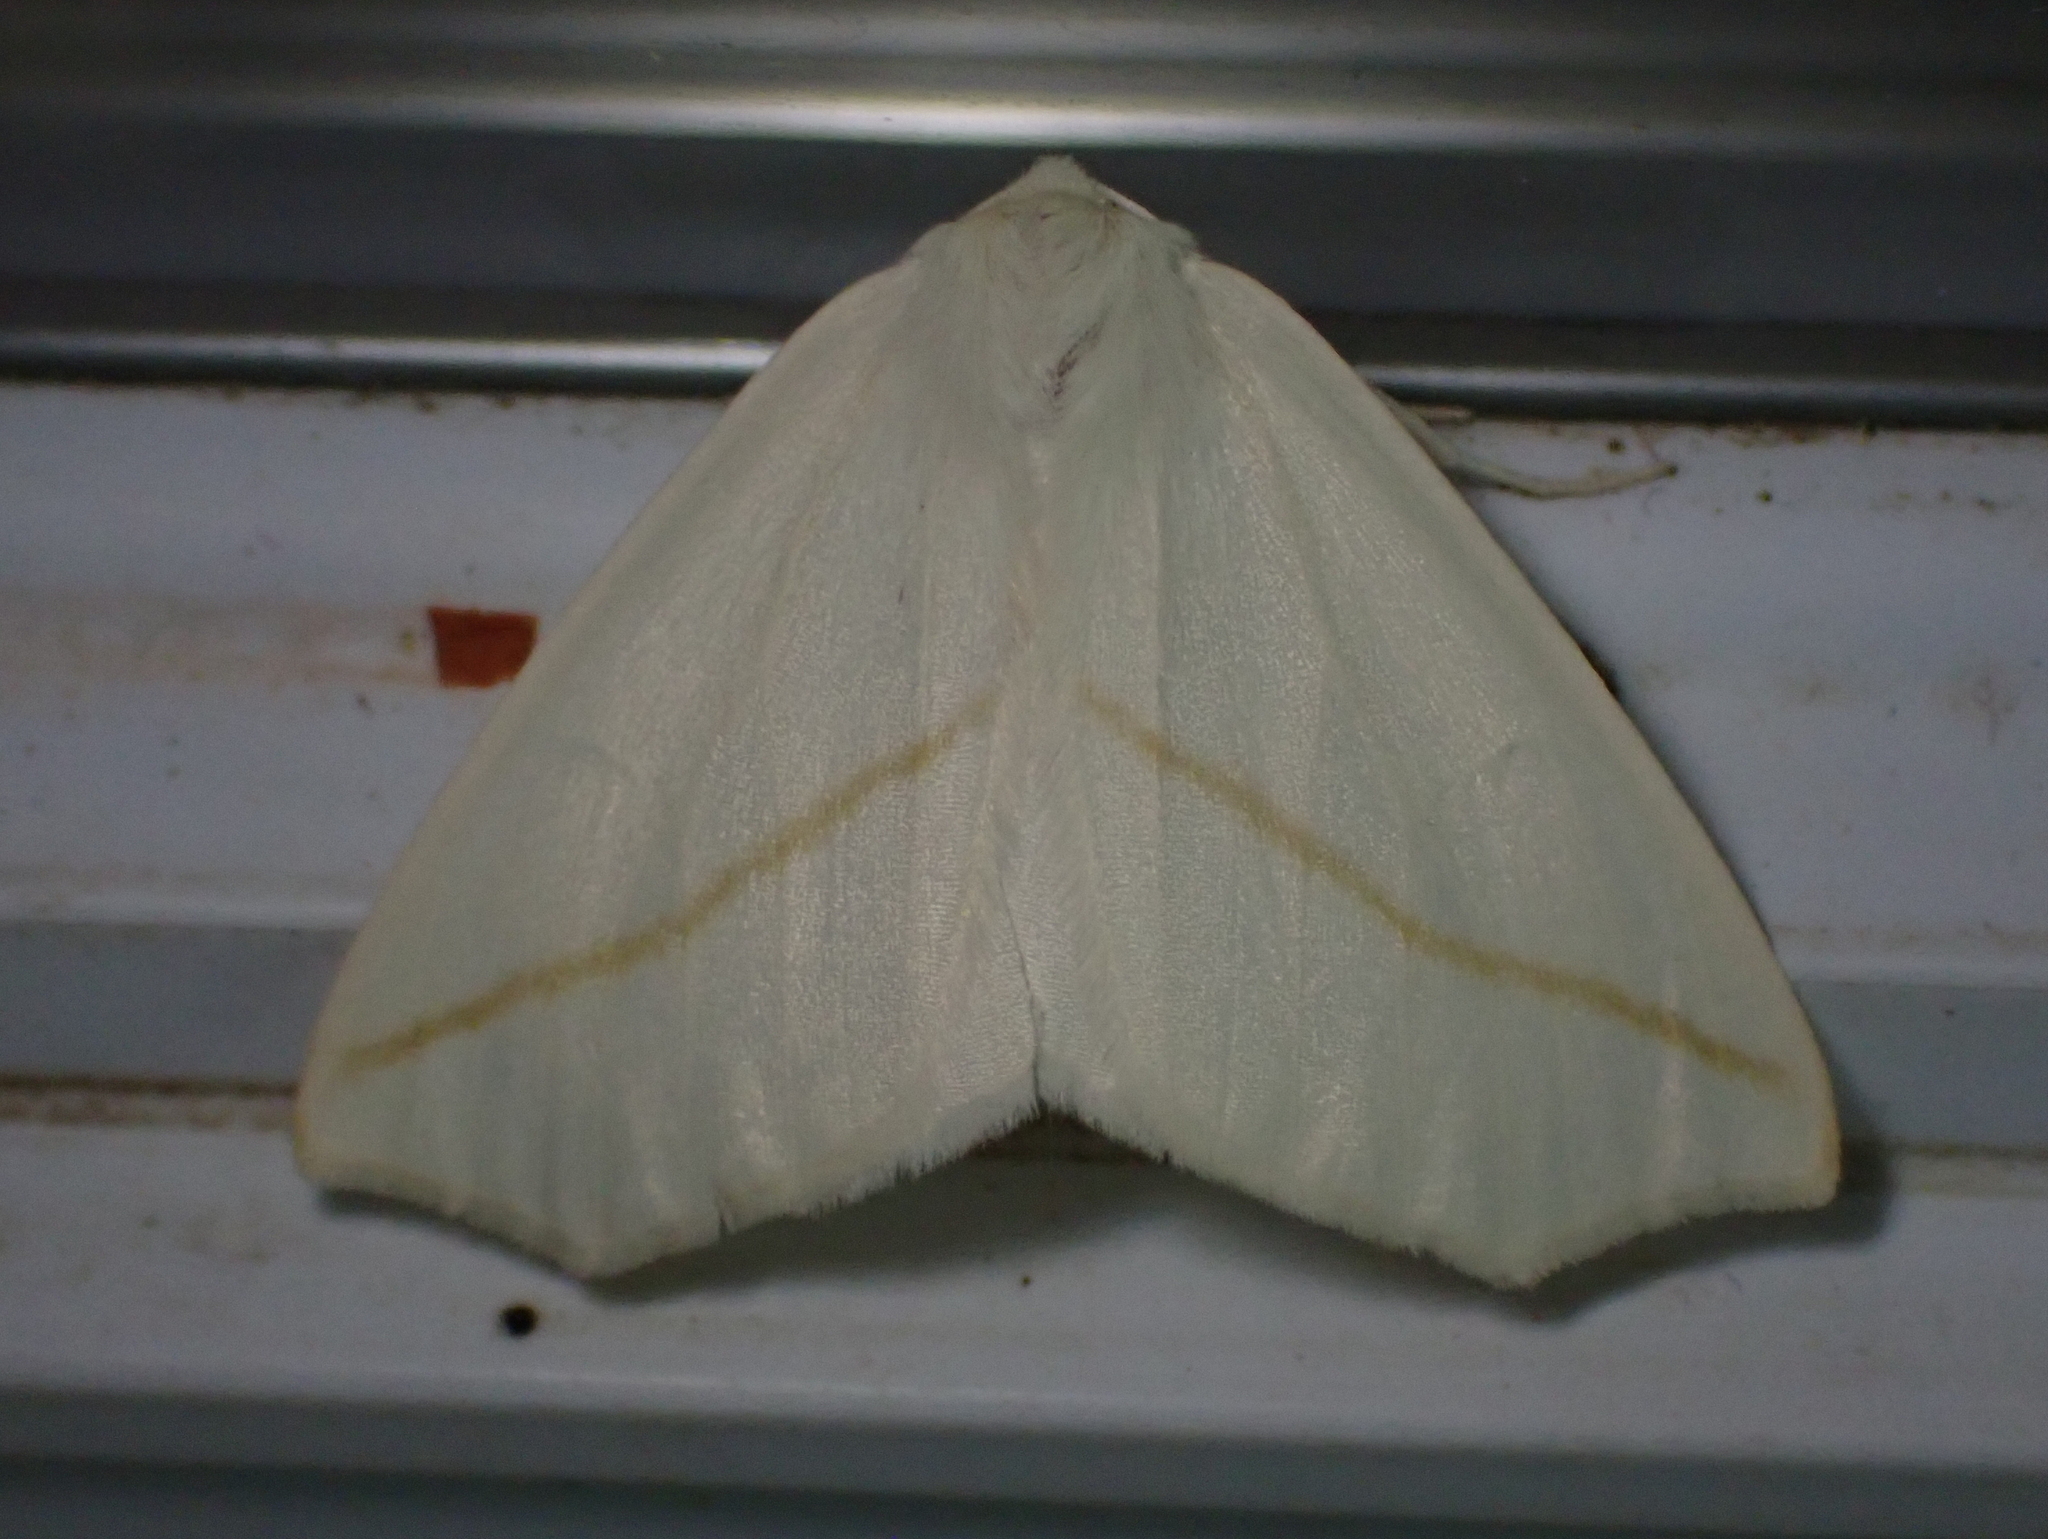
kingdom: Animalia
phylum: Arthropoda
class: Insecta
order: Lepidoptera
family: Geometridae
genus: Tetracis
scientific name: Tetracis cachexiata
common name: White slant-line
